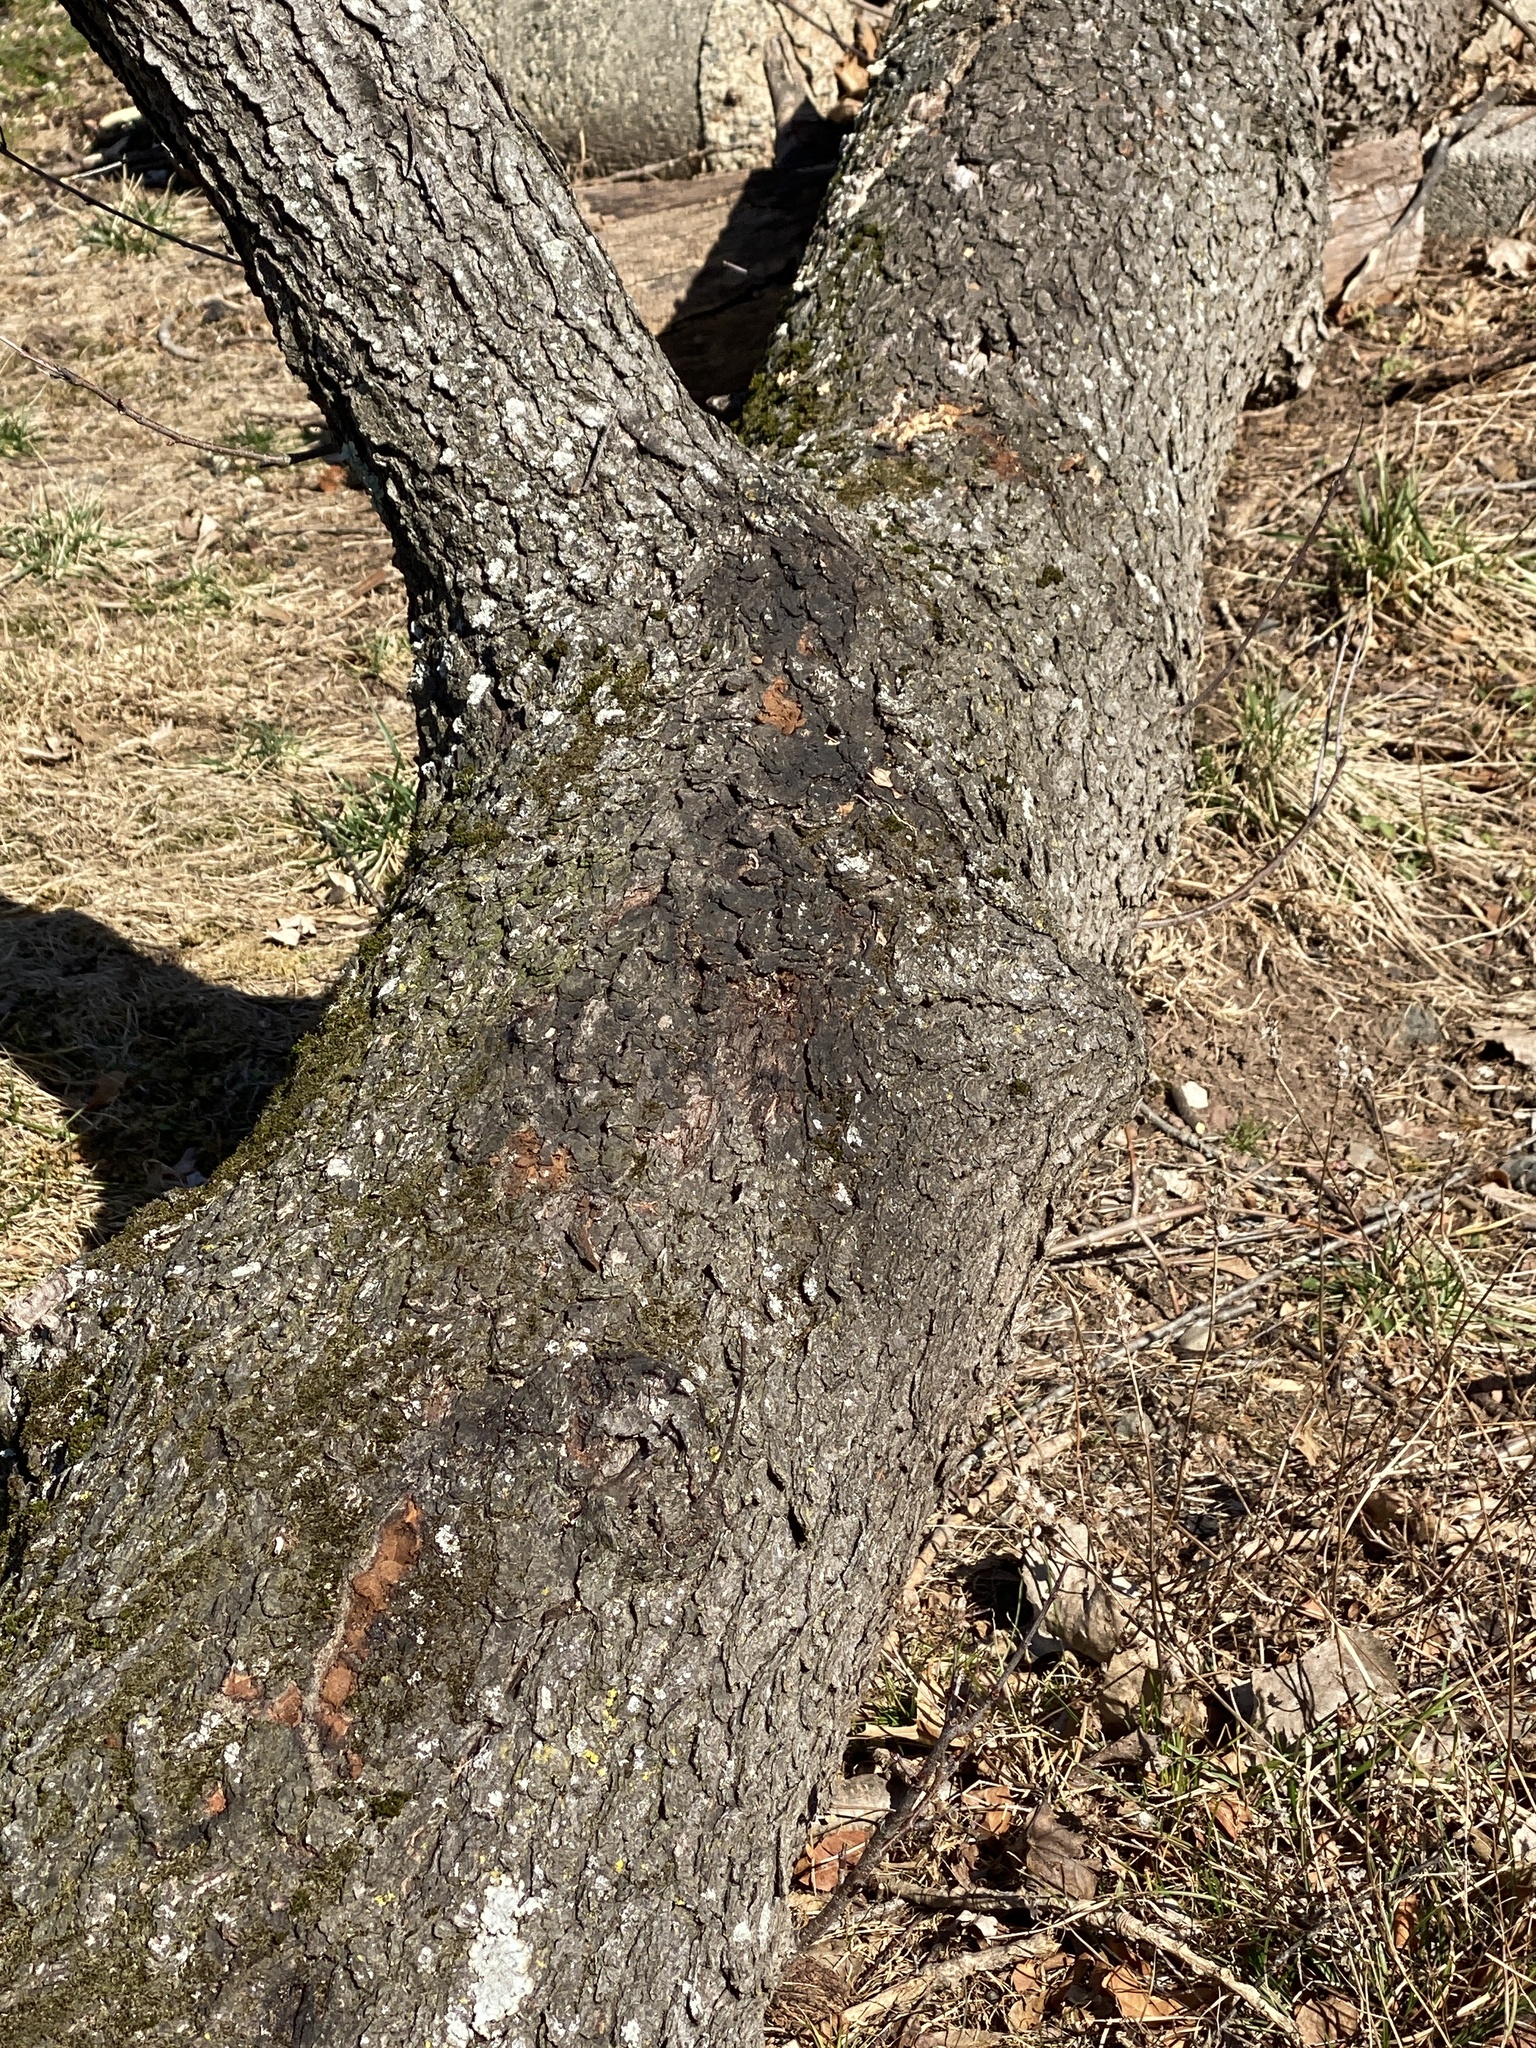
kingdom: Plantae
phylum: Tracheophyta
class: Magnoliopsida
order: Rosales
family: Rosaceae
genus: Prunus
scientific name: Prunus serotina
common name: Black cherry
